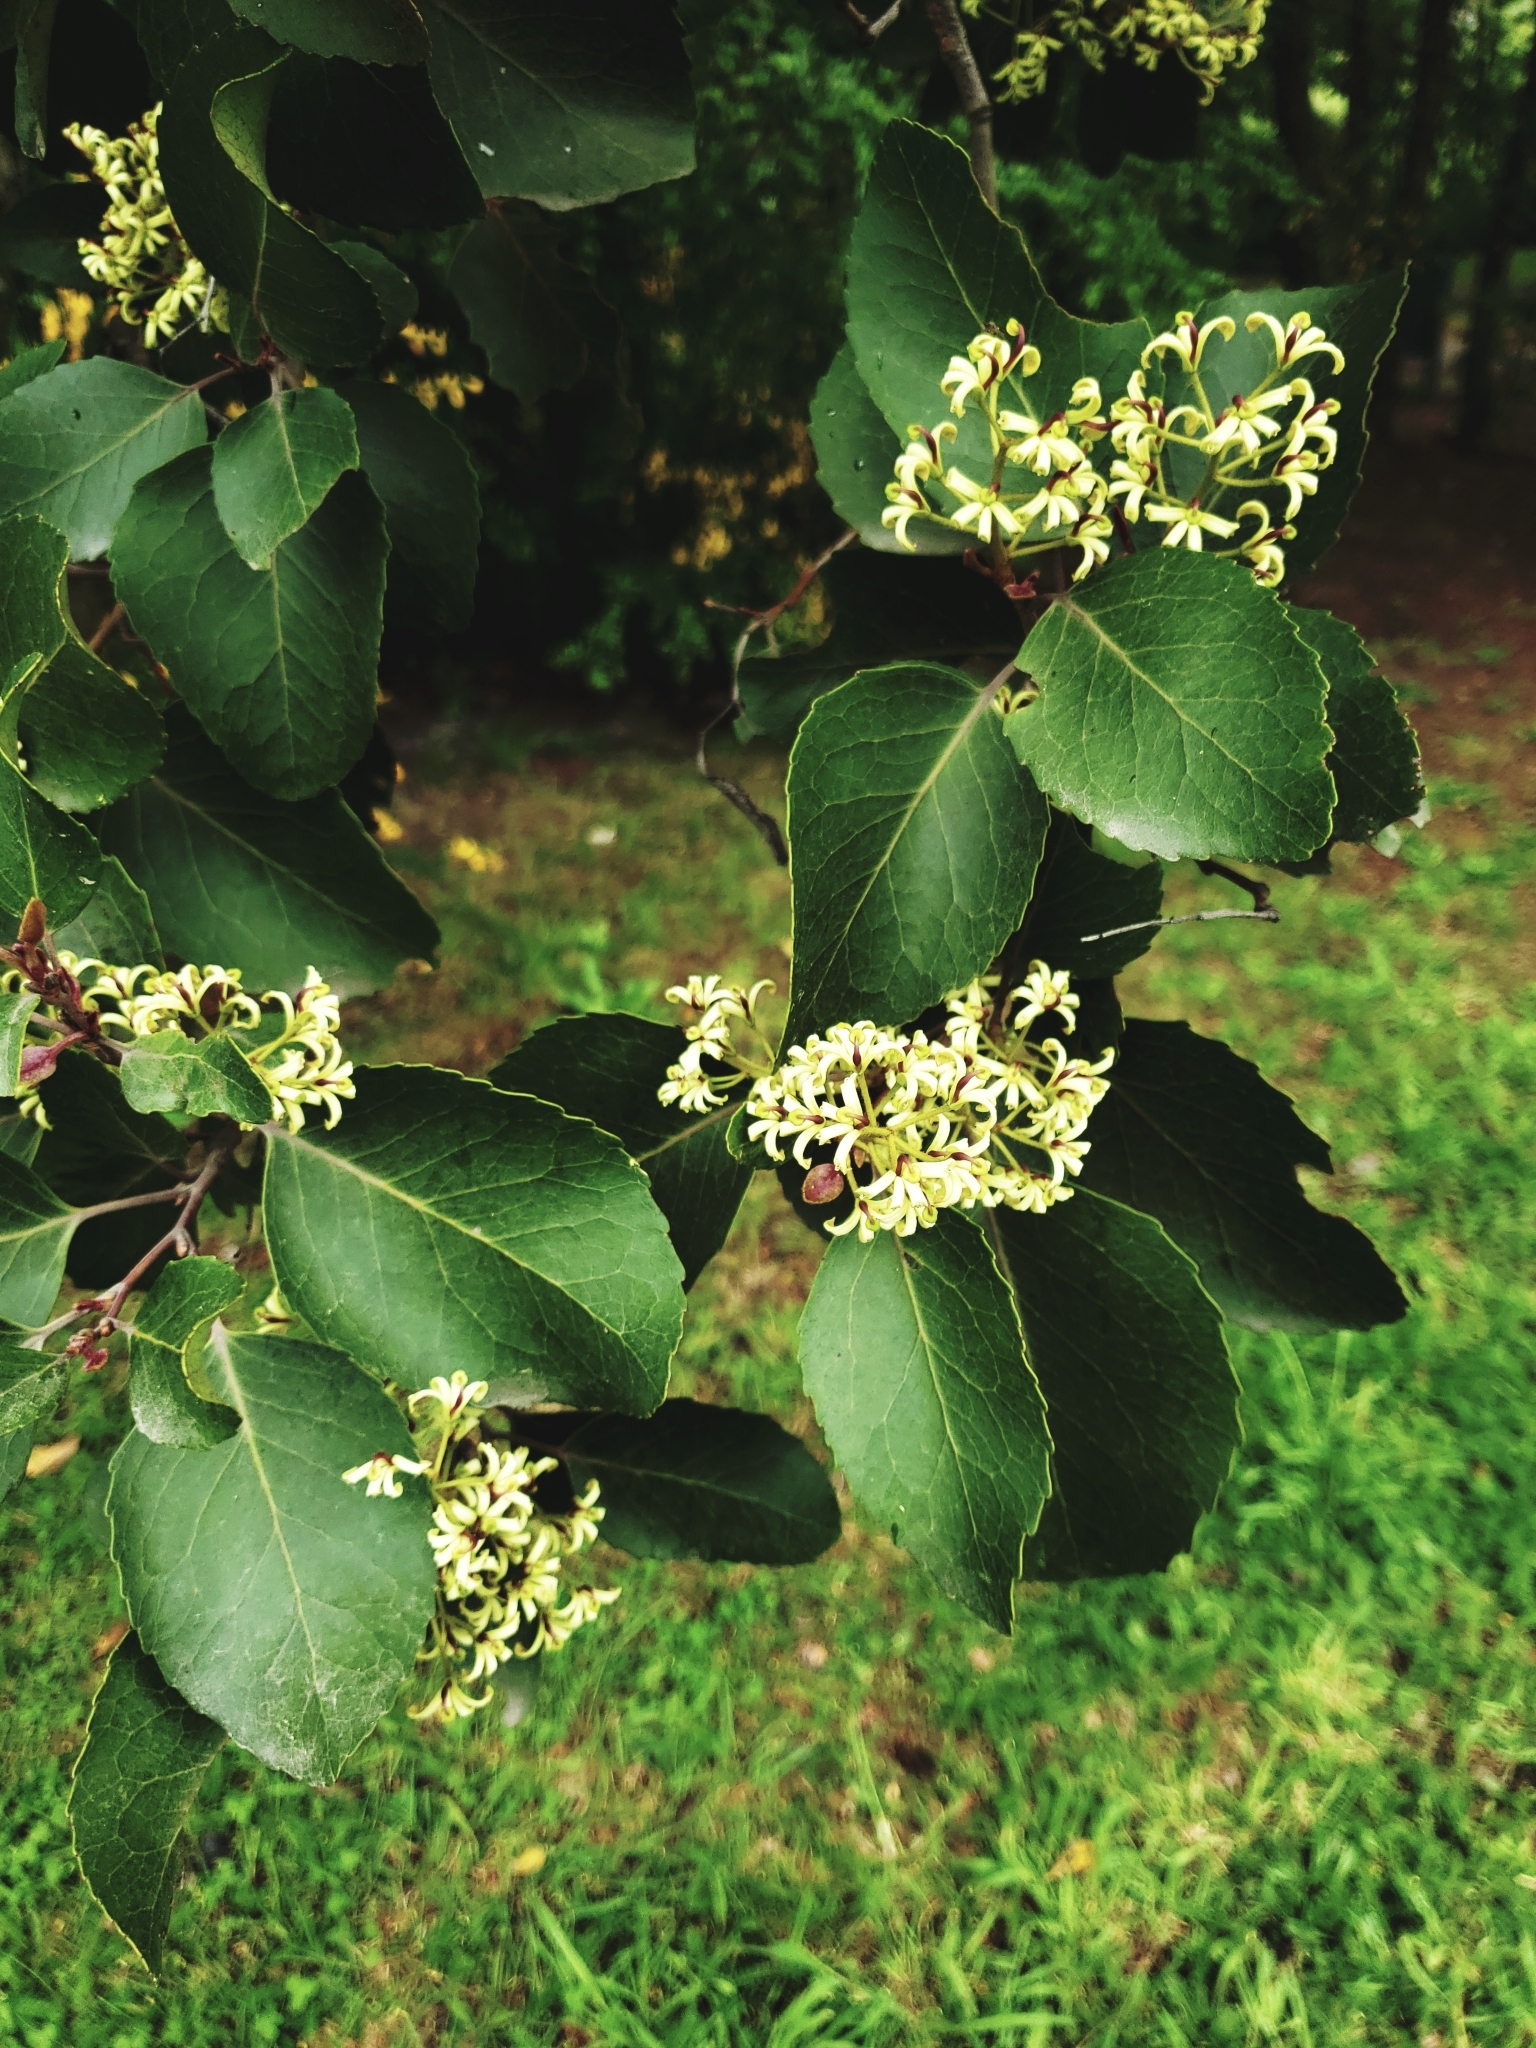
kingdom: Plantae
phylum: Tracheophyta
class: Magnoliopsida
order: Proteales
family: Proteaceae
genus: Lomatia
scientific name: Lomatia hirsuta
